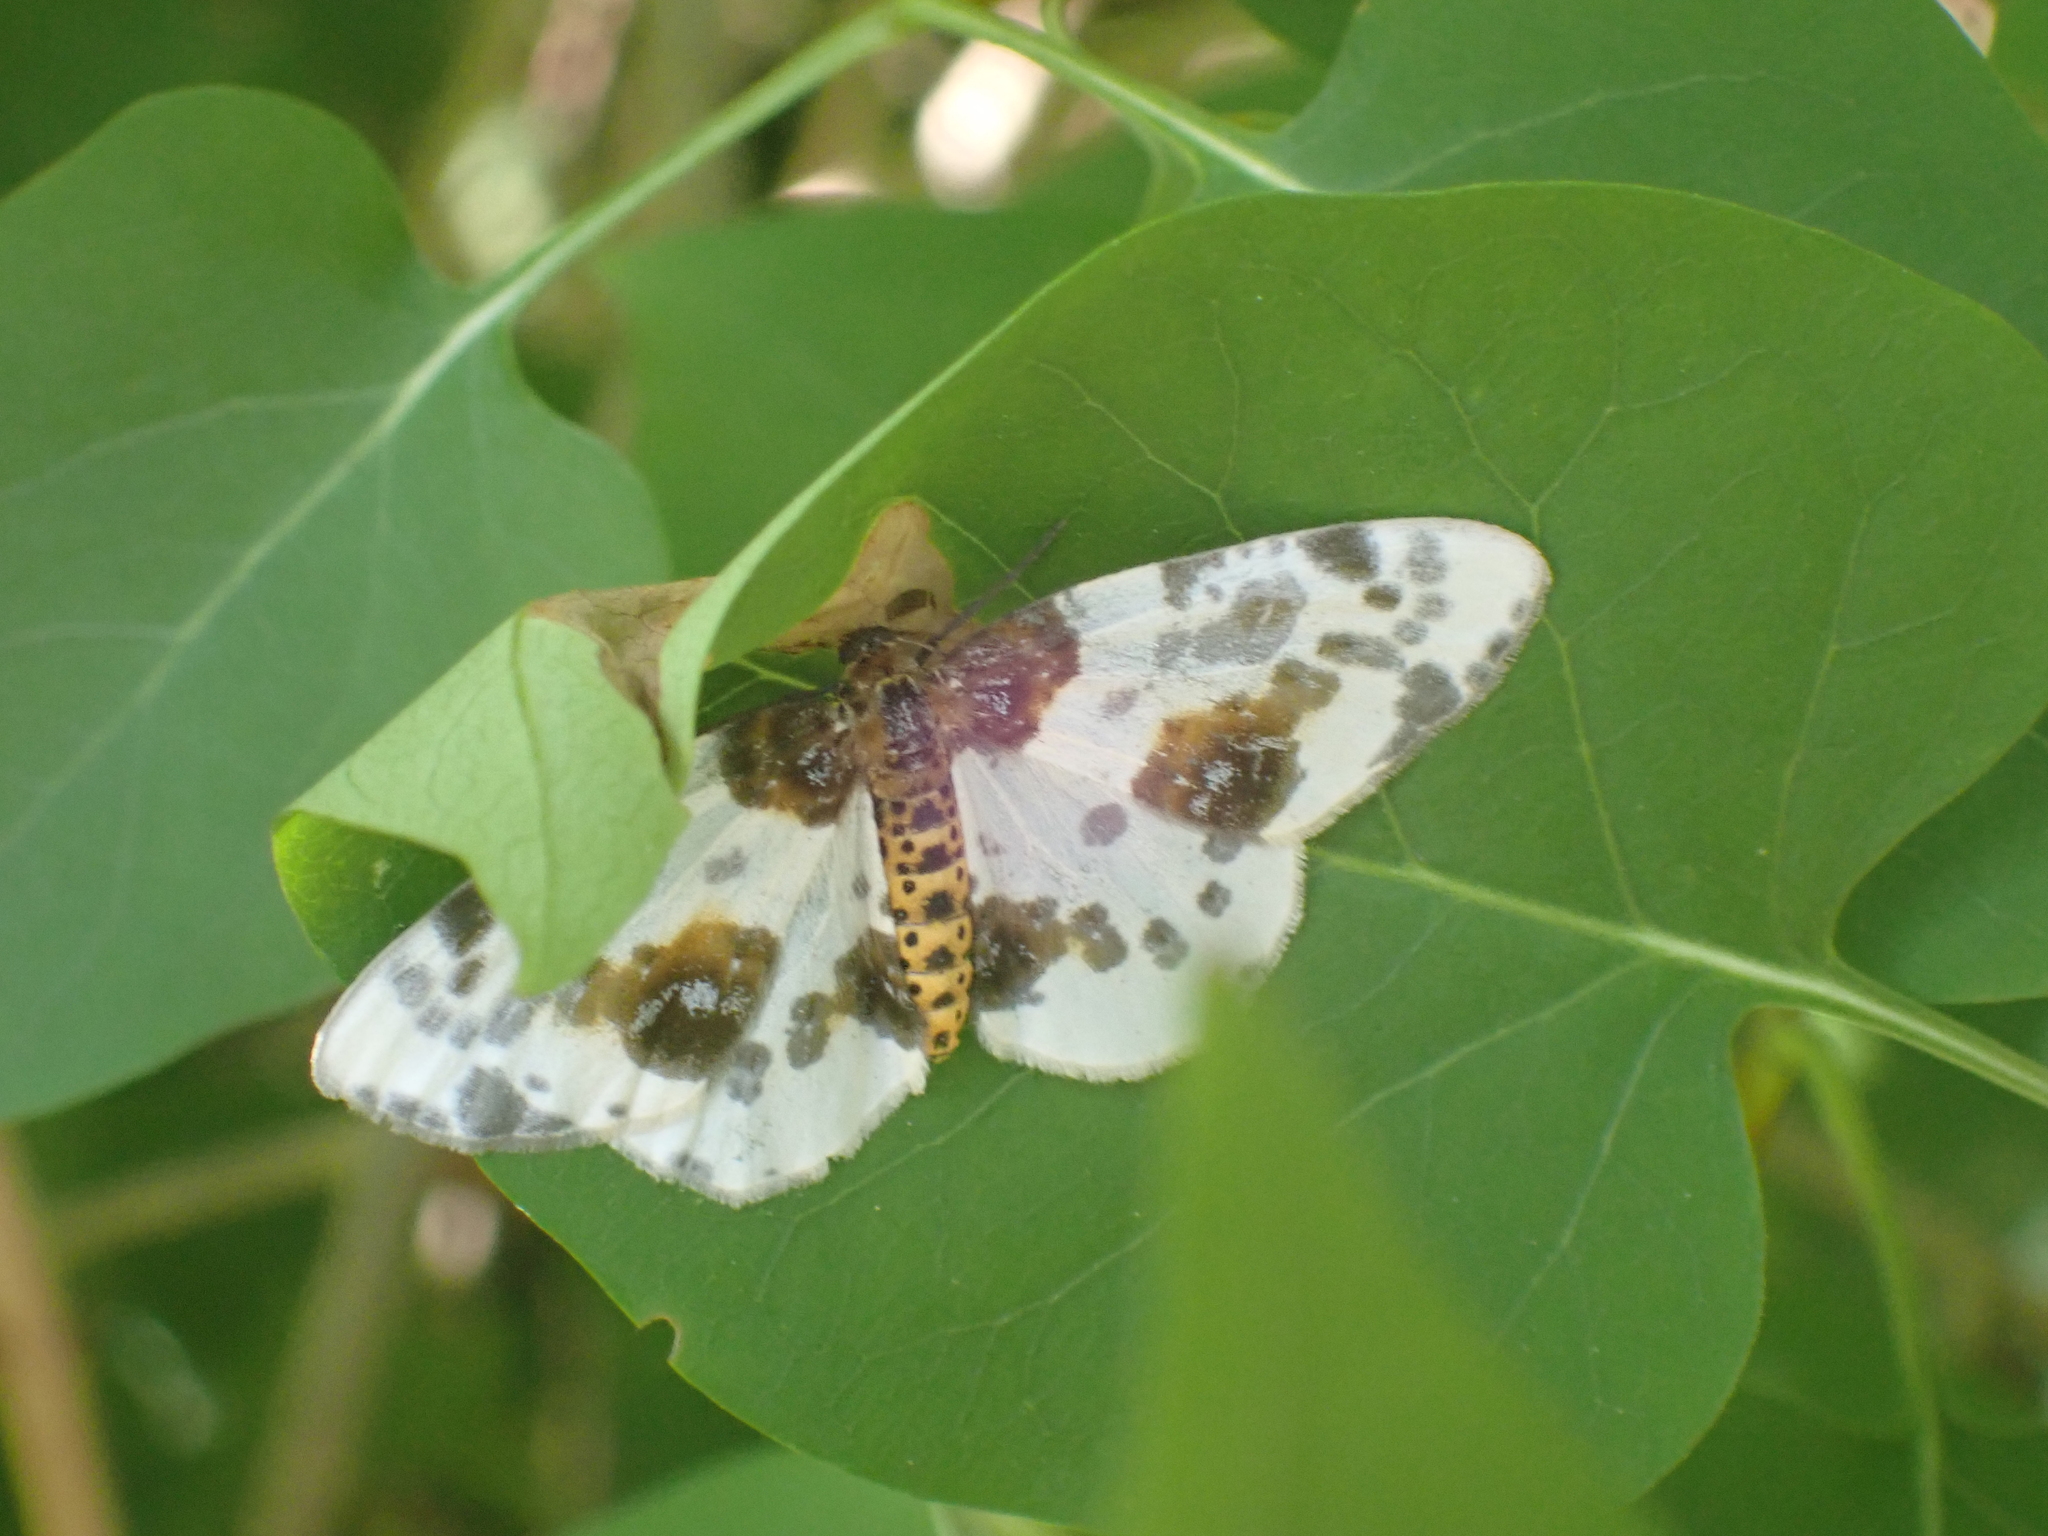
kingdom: Animalia
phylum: Arthropoda
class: Insecta
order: Lepidoptera
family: Geometridae
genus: Abraxas
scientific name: Abraxas sylvata
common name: Clouded magpie
